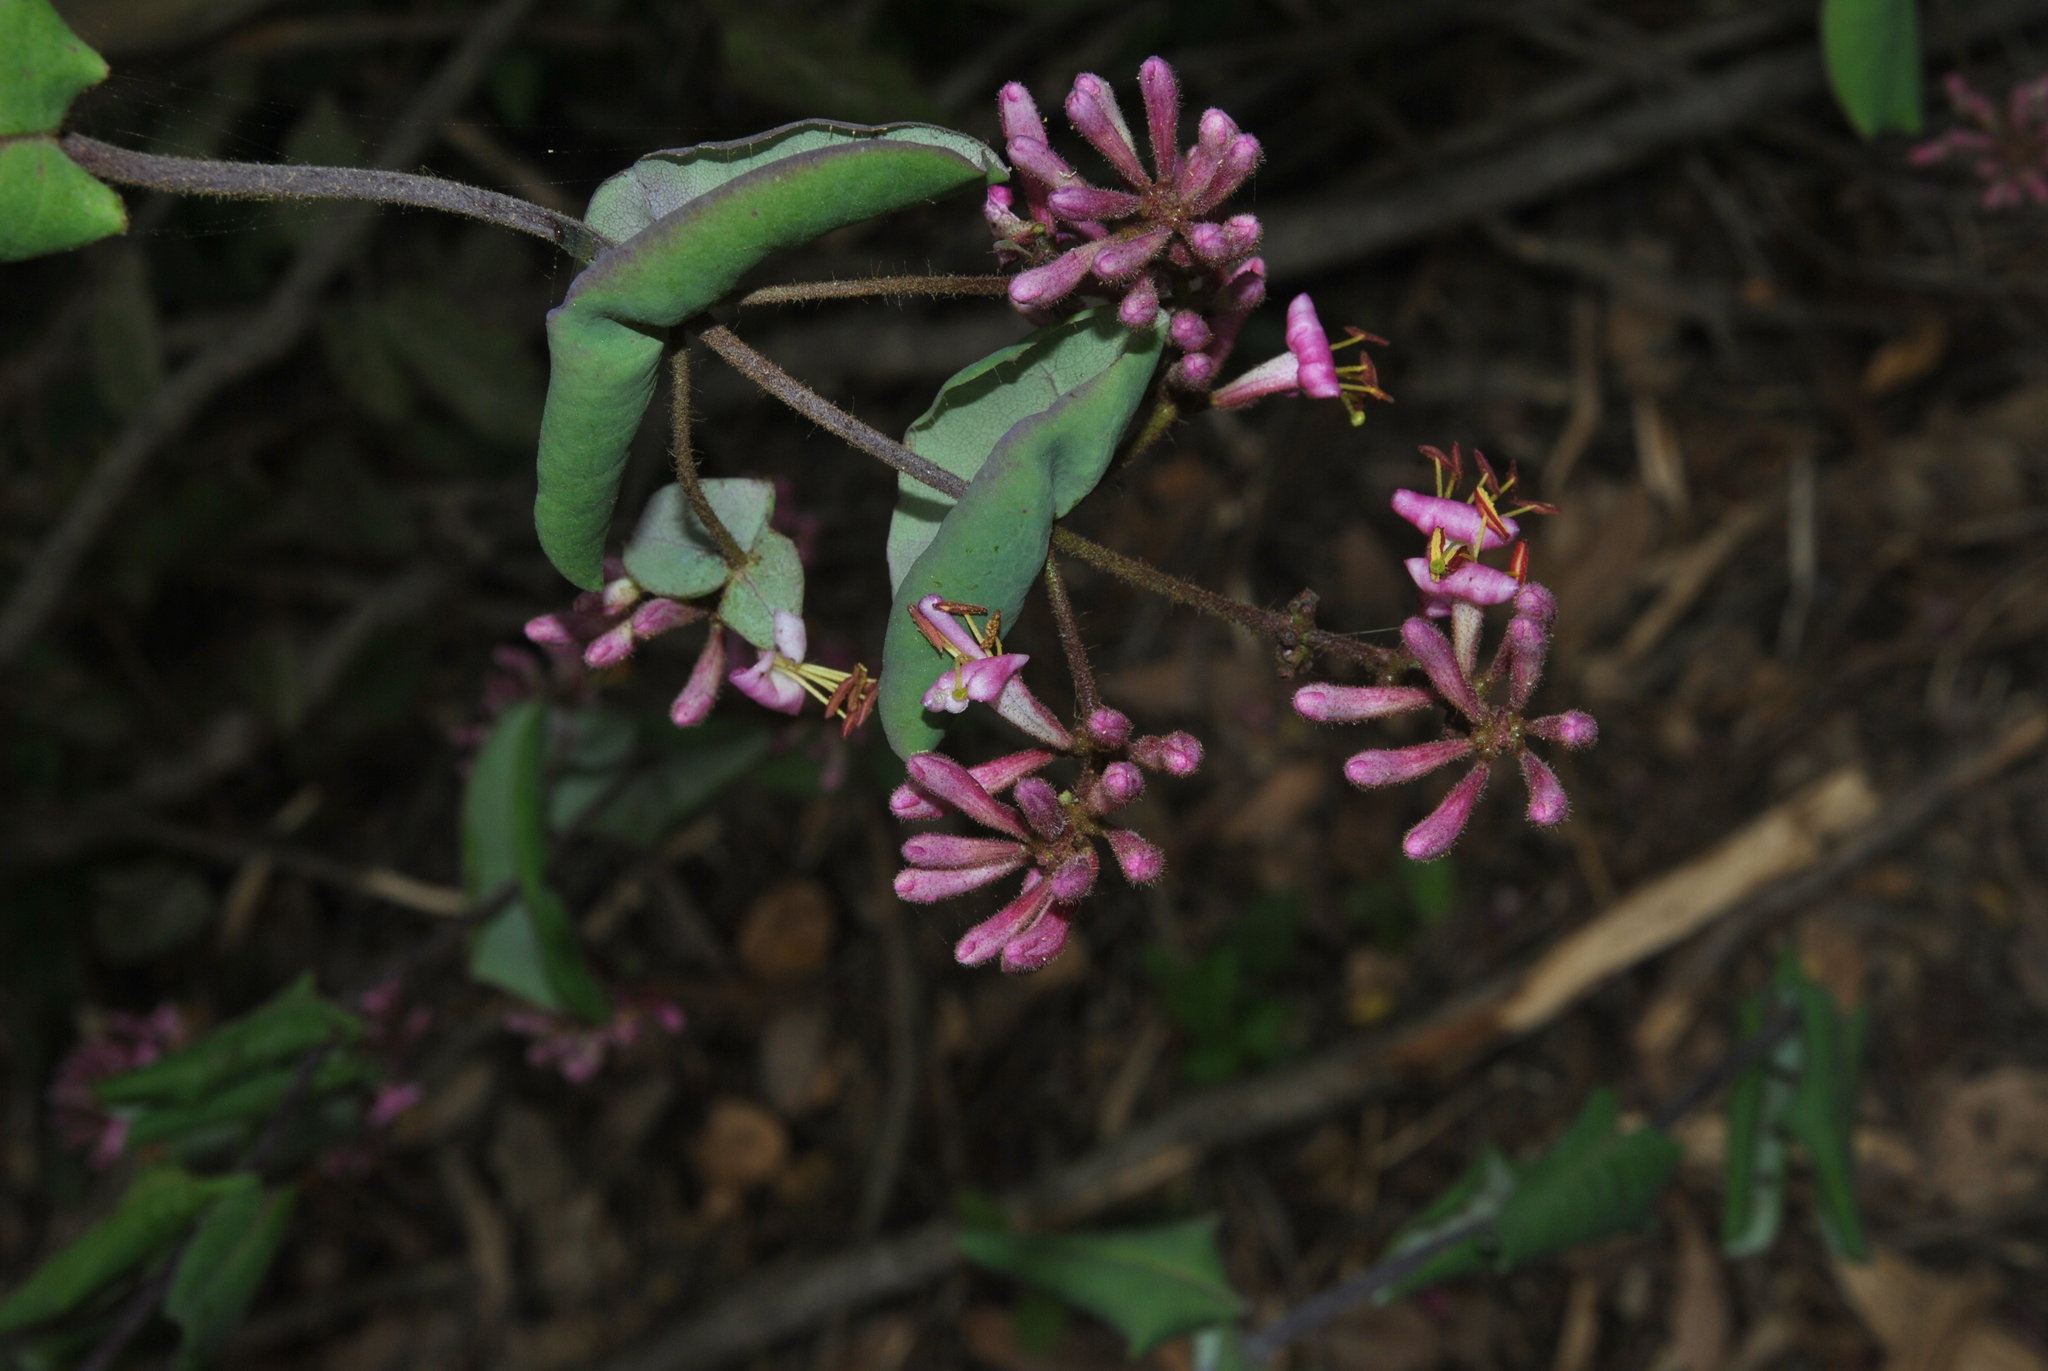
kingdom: Plantae
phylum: Tracheophyta
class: Magnoliopsida
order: Dipsacales
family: Caprifoliaceae
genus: Lonicera
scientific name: Lonicera hispidula
